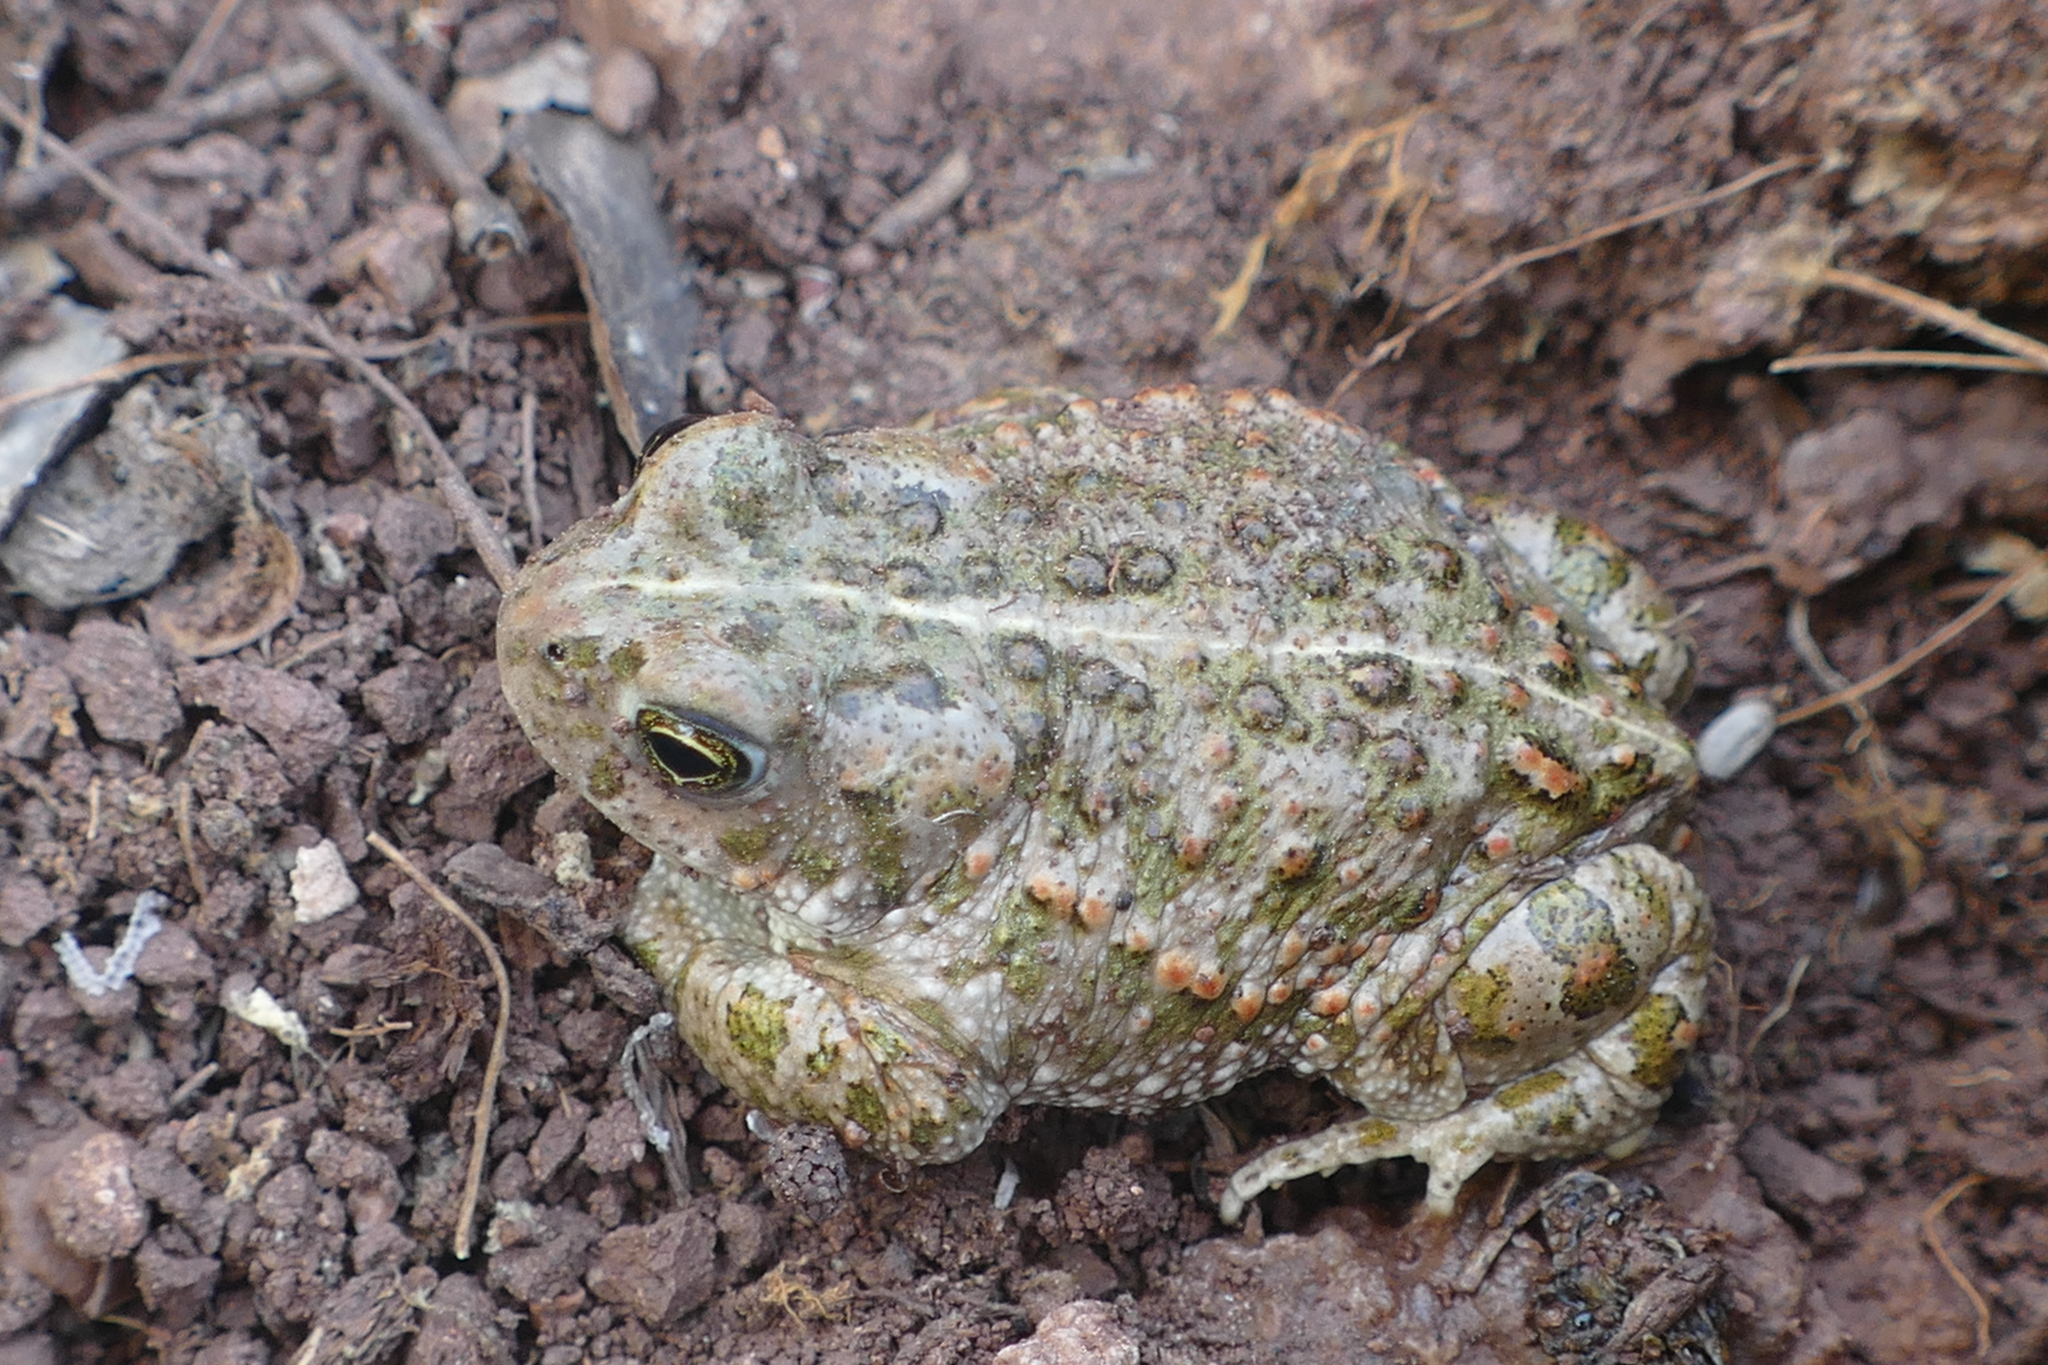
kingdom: Animalia
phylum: Chordata
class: Amphibia
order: Anura
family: Bufonidae
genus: Epidalea
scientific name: Epidalea calamita
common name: Natterjack toad
